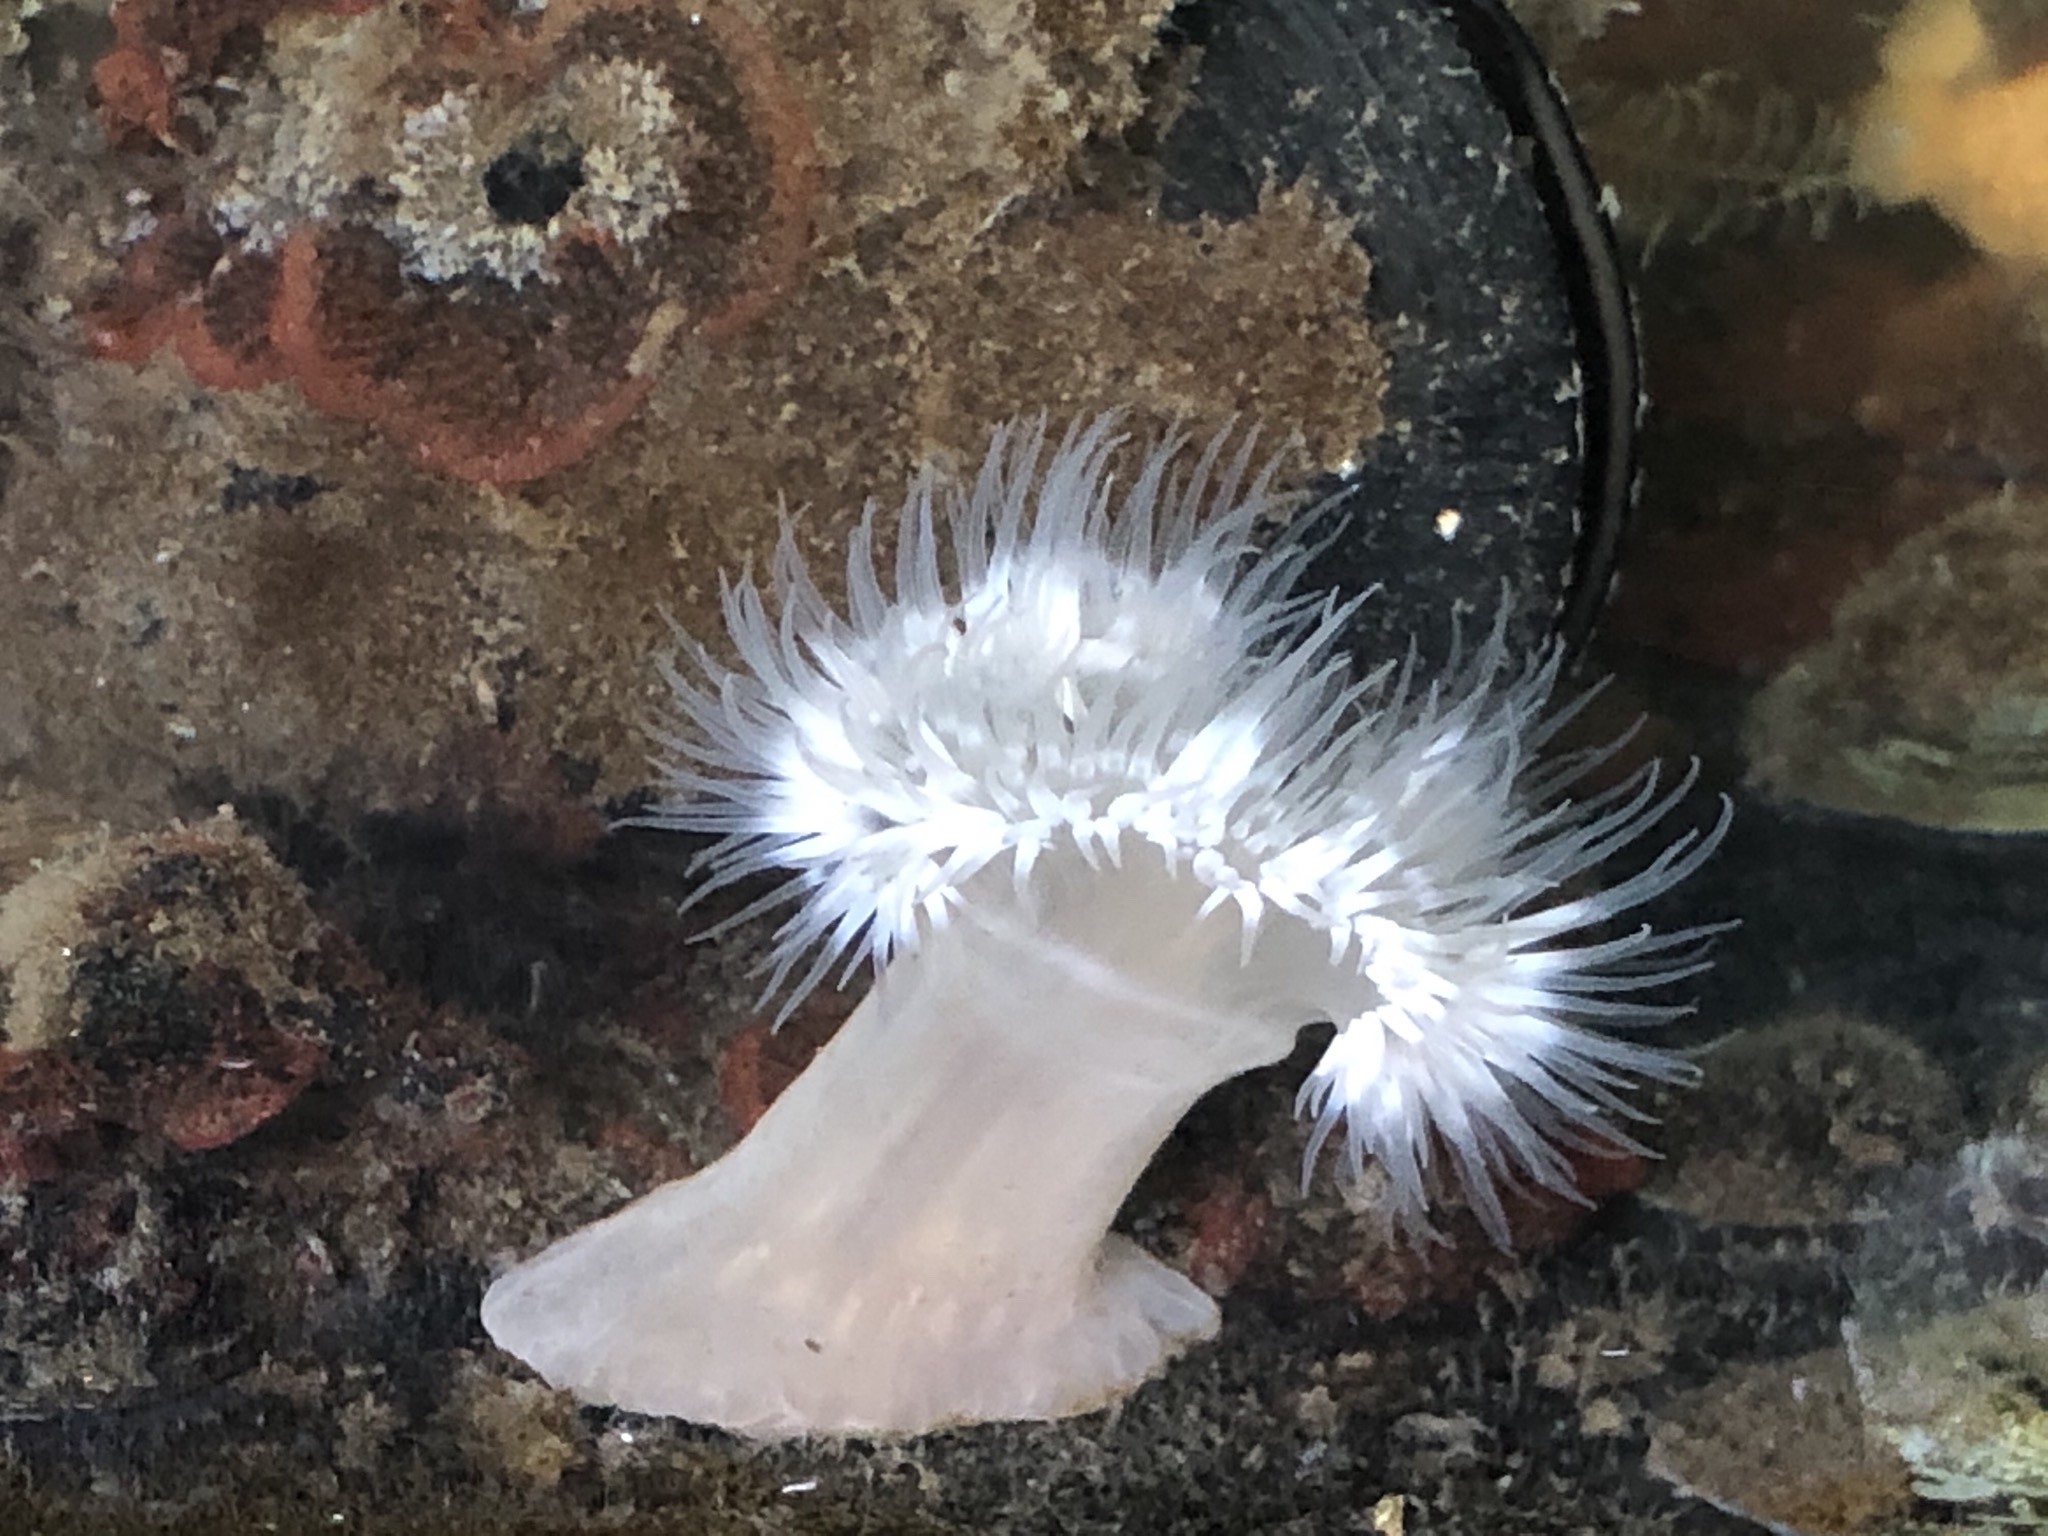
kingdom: Animalia
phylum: Cnidaria
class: Anthozoa
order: Actiniaria
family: Metridiidae
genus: Metridium
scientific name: Metridium senile
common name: Clonal plumose anemone
